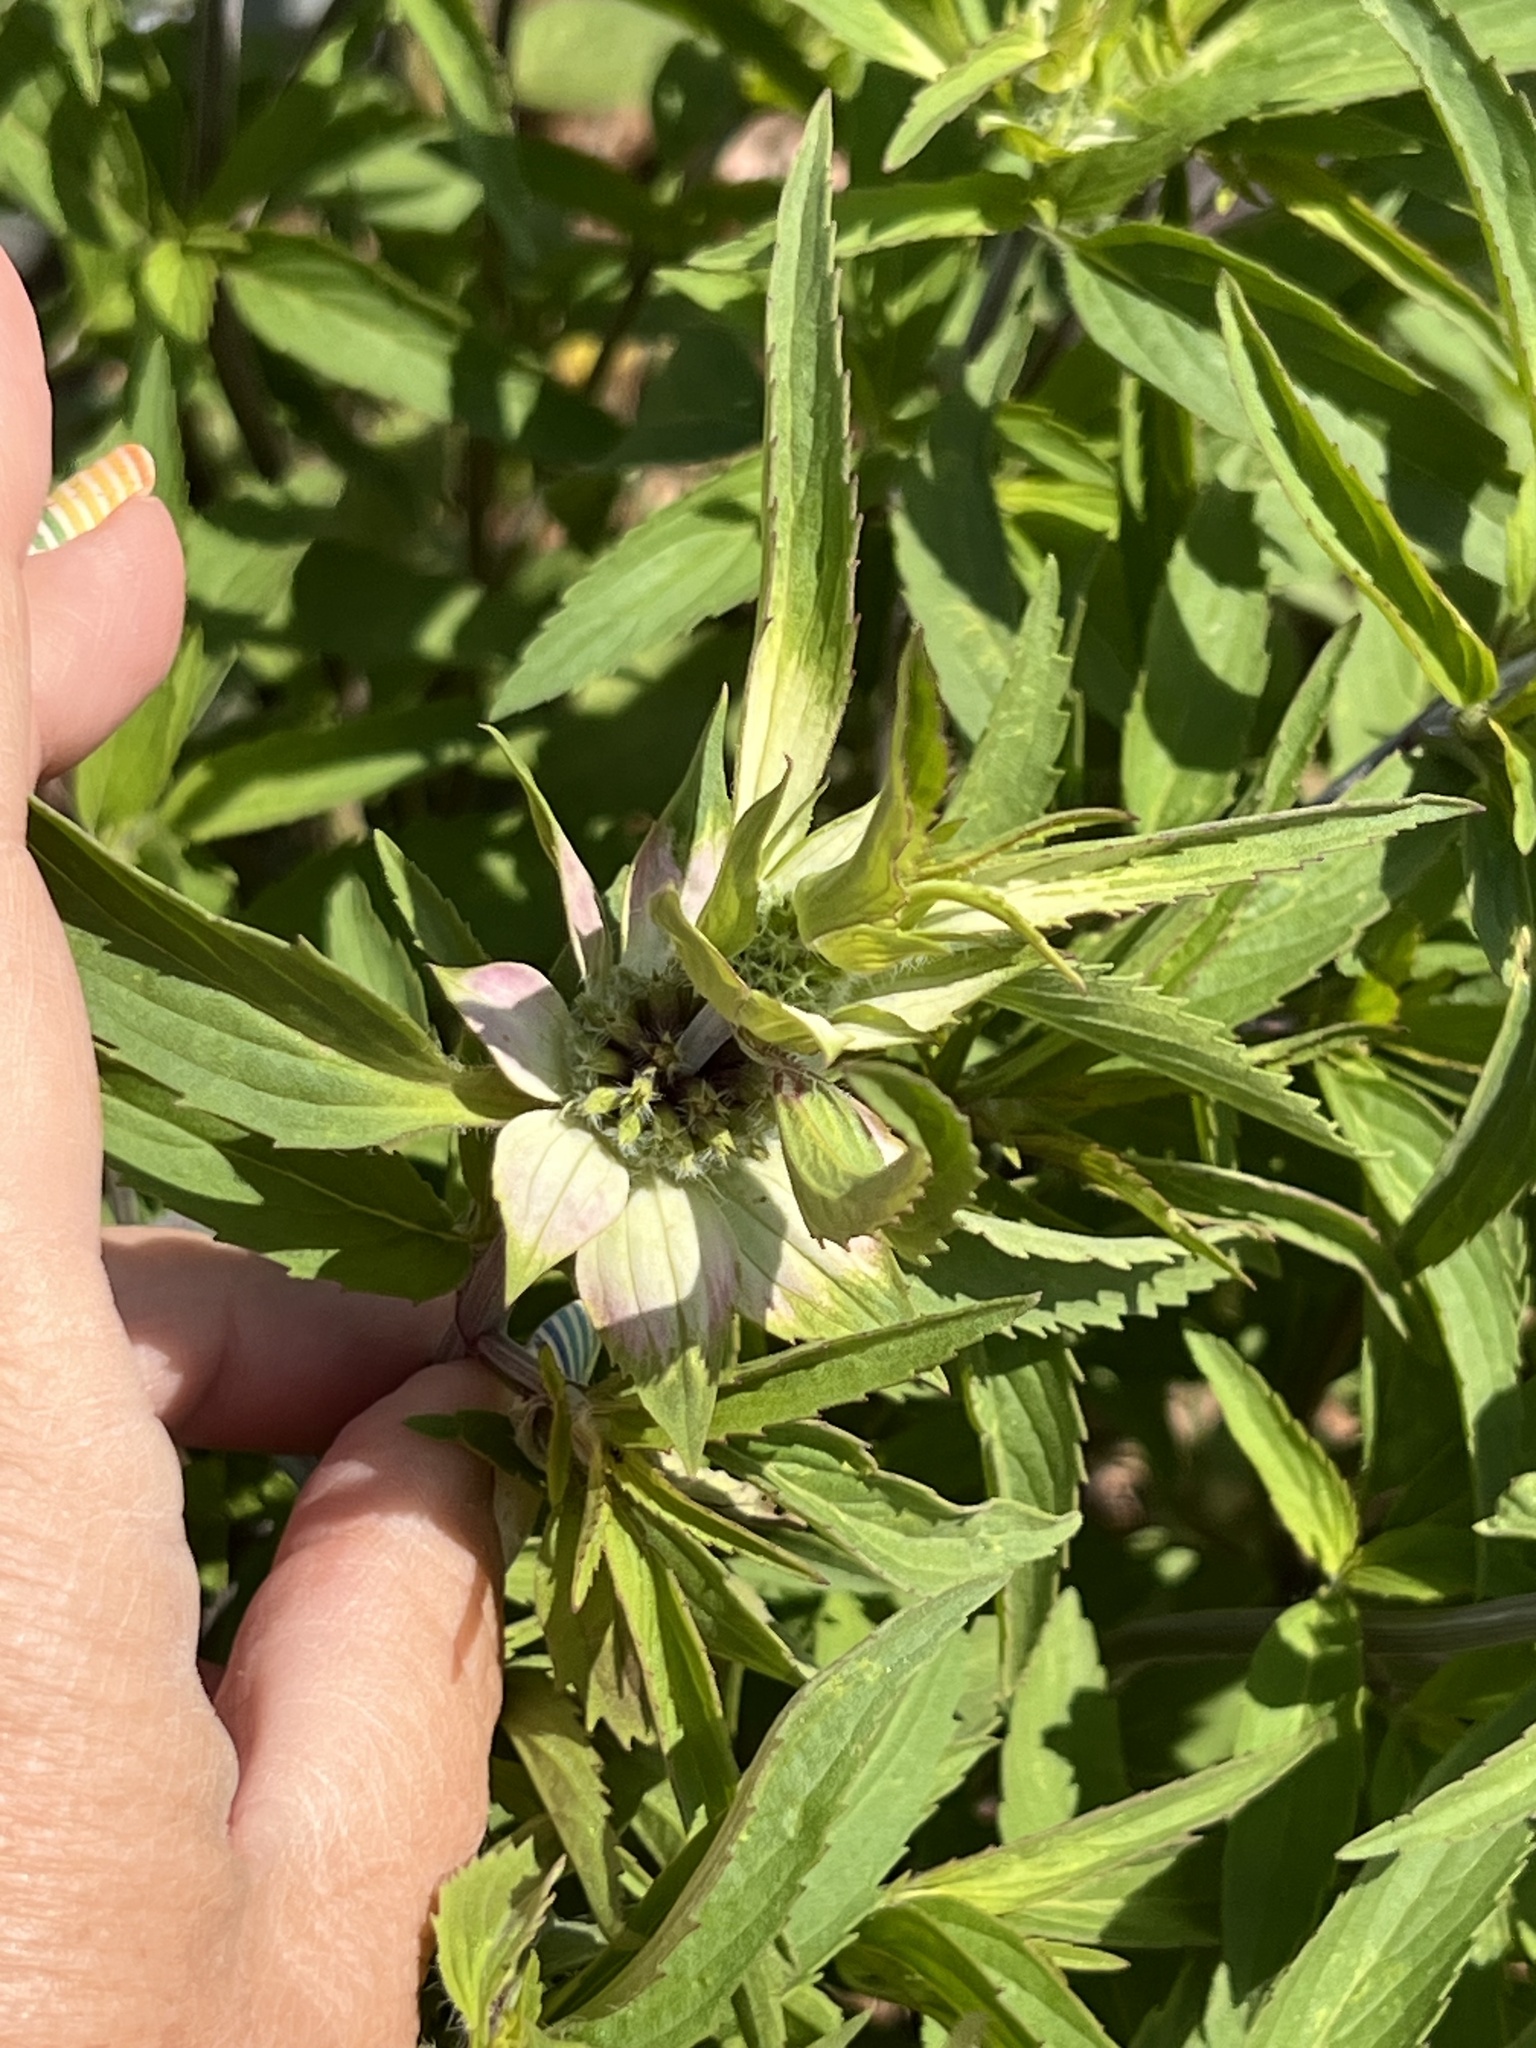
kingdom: Plantae
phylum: Tracheophyta
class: Magnoliopsida
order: Lamiales
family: Lamiaceae
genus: Monarda
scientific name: Monarda punctata
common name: Dotted monarda
